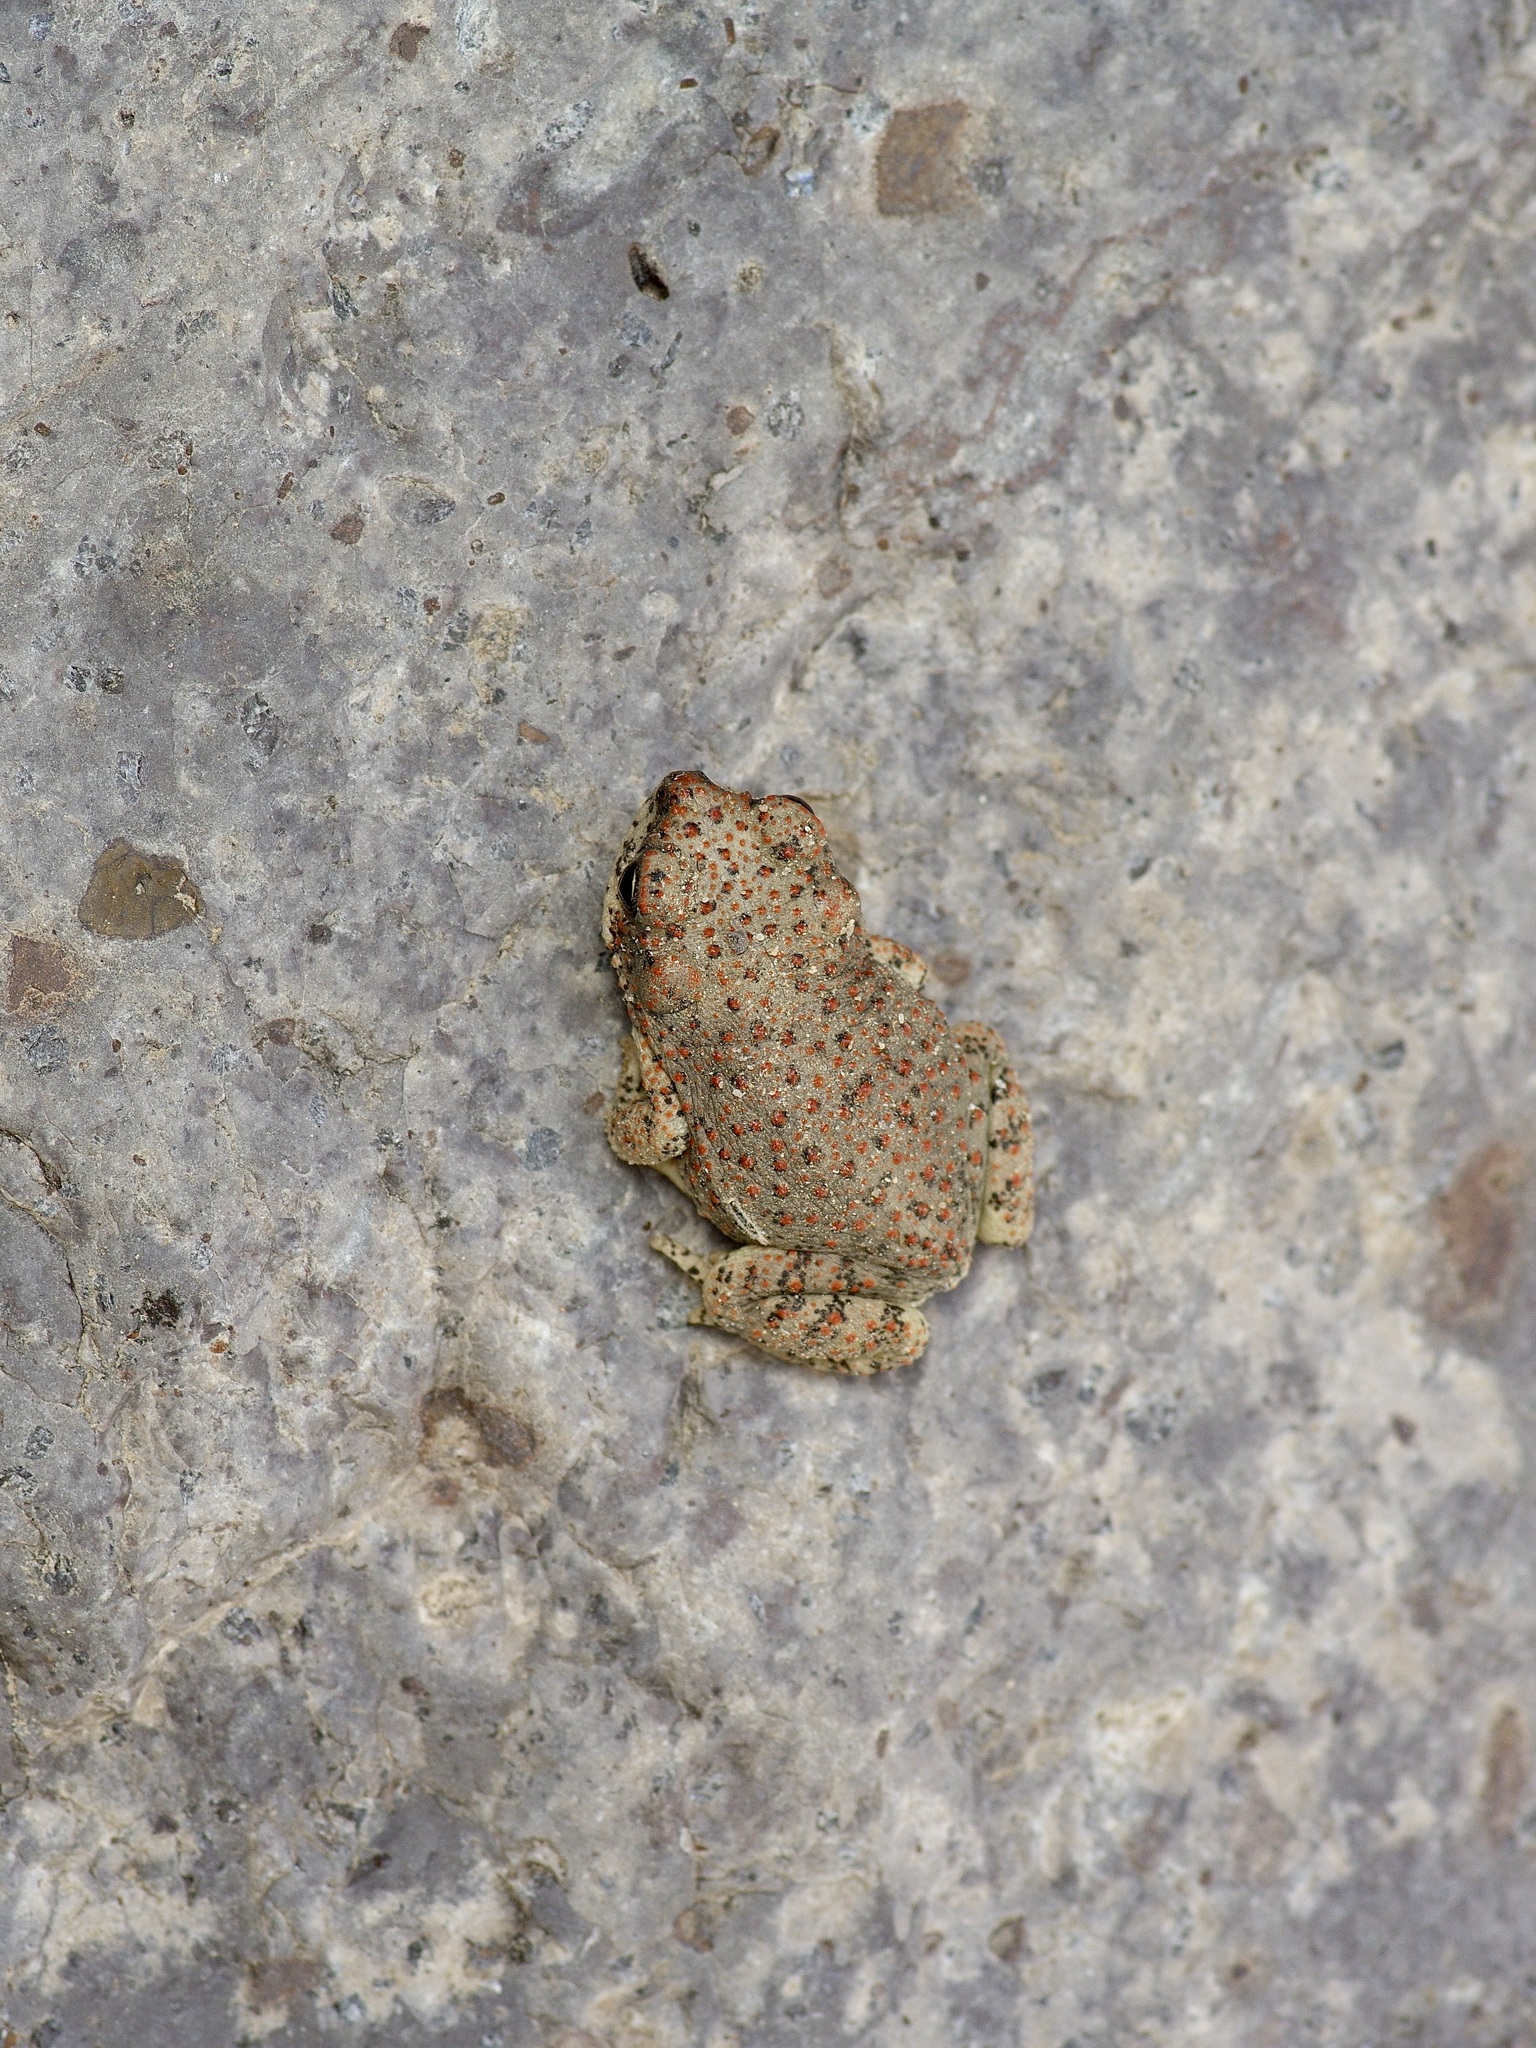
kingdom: Animalia
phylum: Chordata
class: Amphibia
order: Anura
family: Bufonidae
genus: Anaxyrus
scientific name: Anaxyrus punctatus
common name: Red-spotted toad
